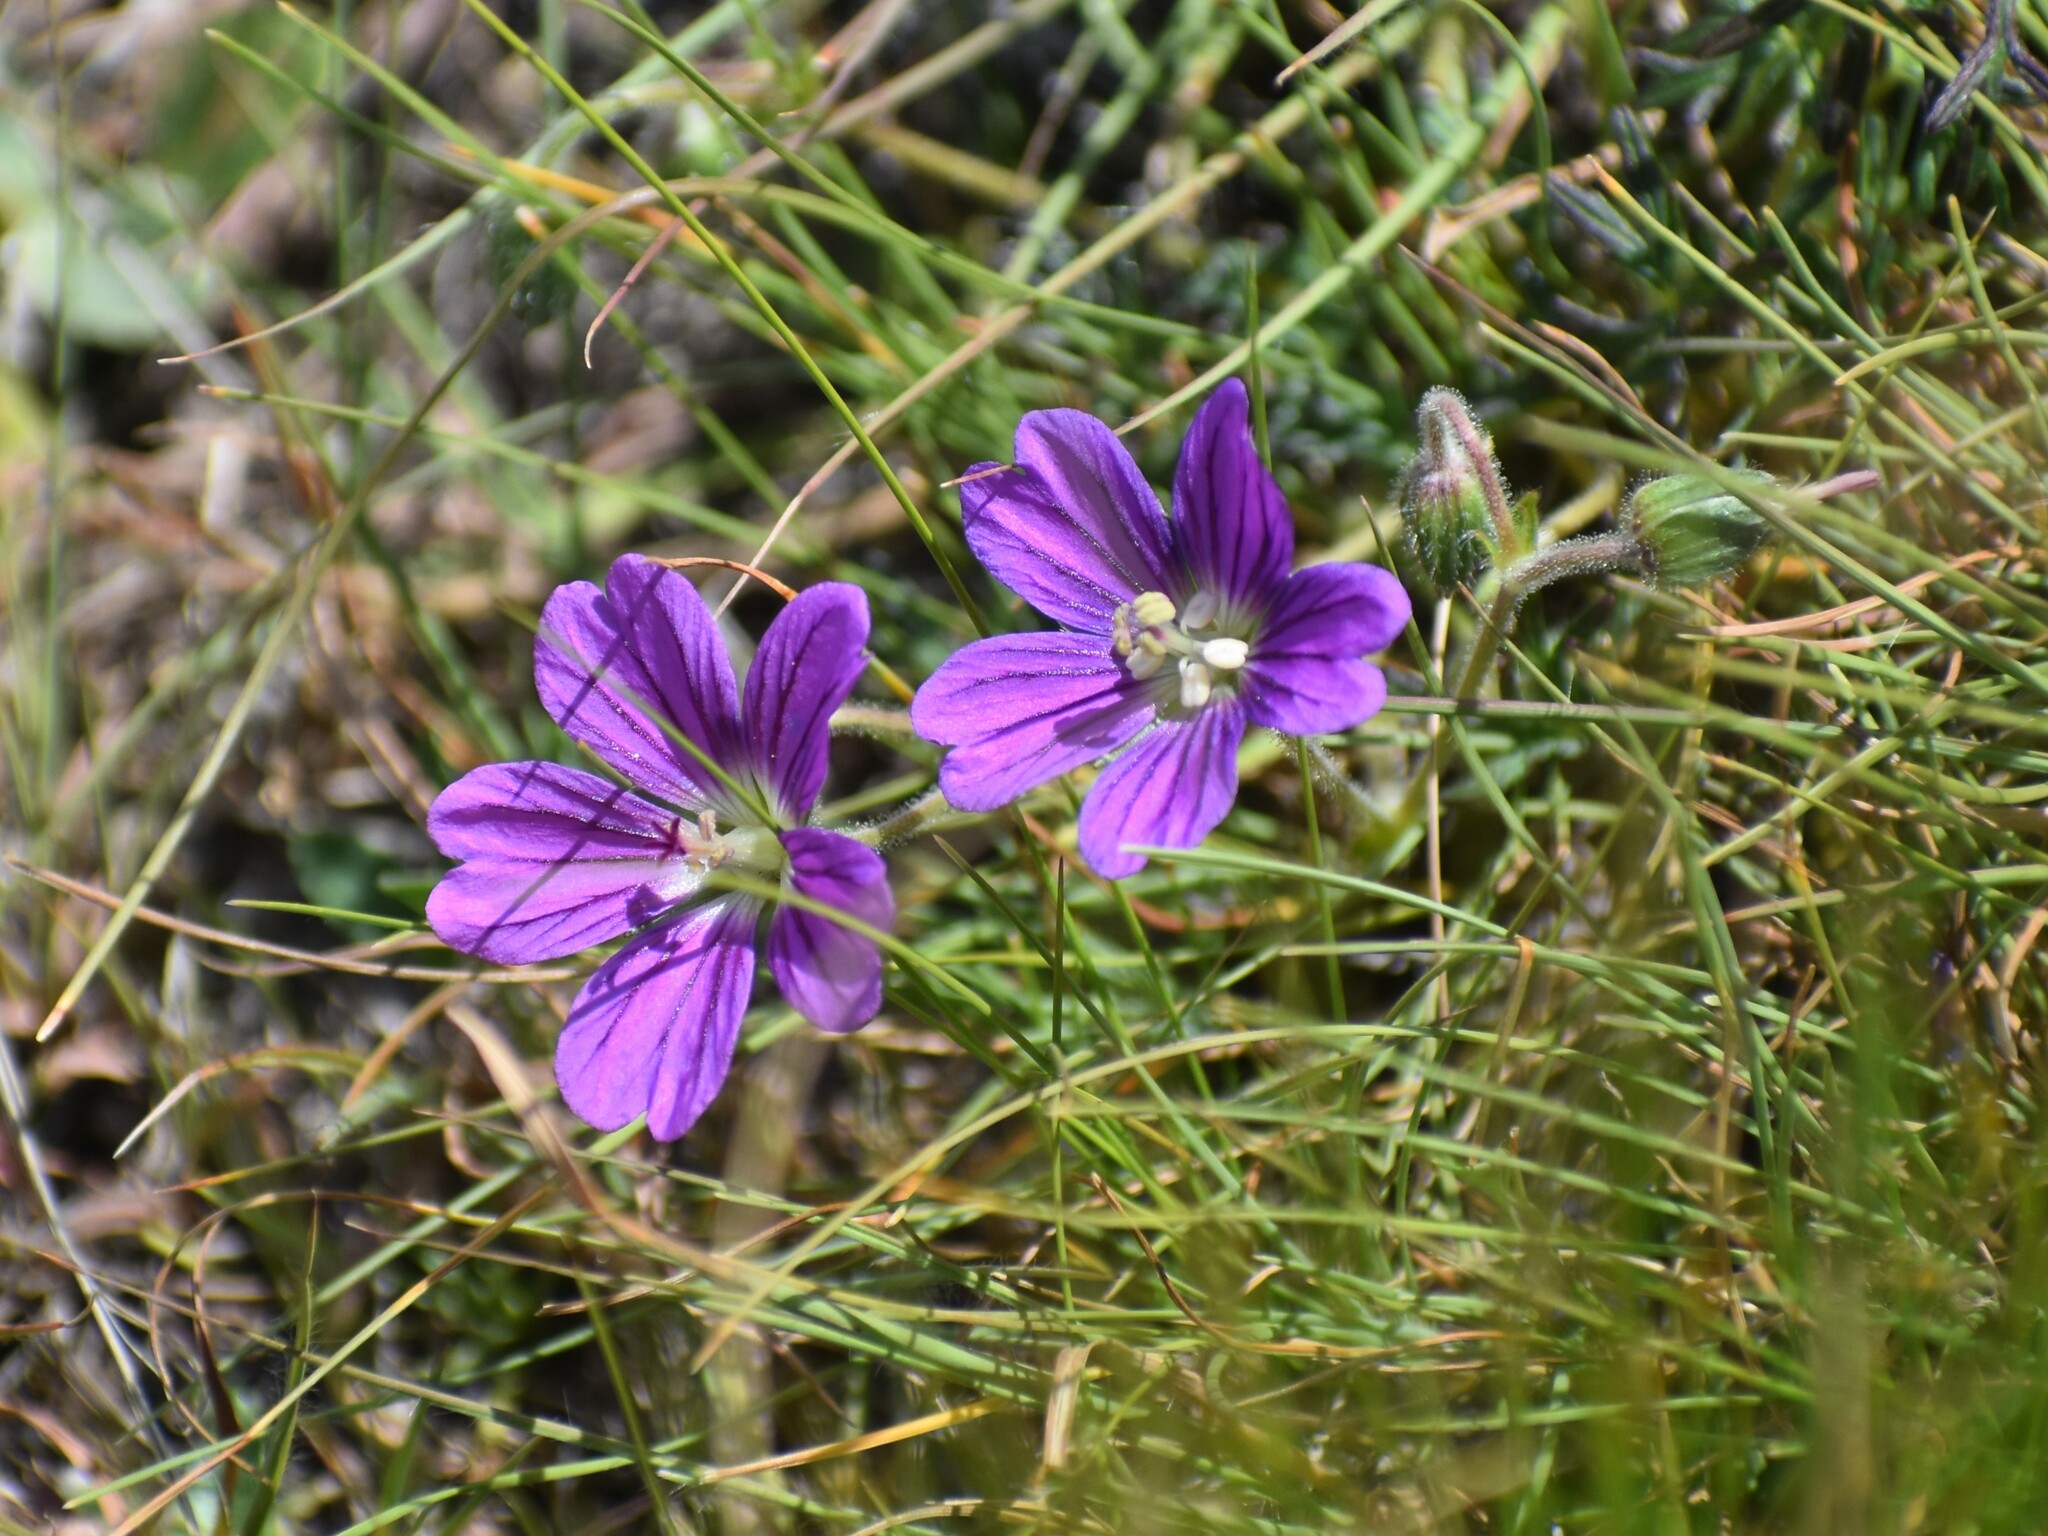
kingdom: Plantae
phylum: Tracheophyta
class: Magnoliopsida
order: Geraniales
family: Geraniaceae
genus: Geranium
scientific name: Geranium brycei
